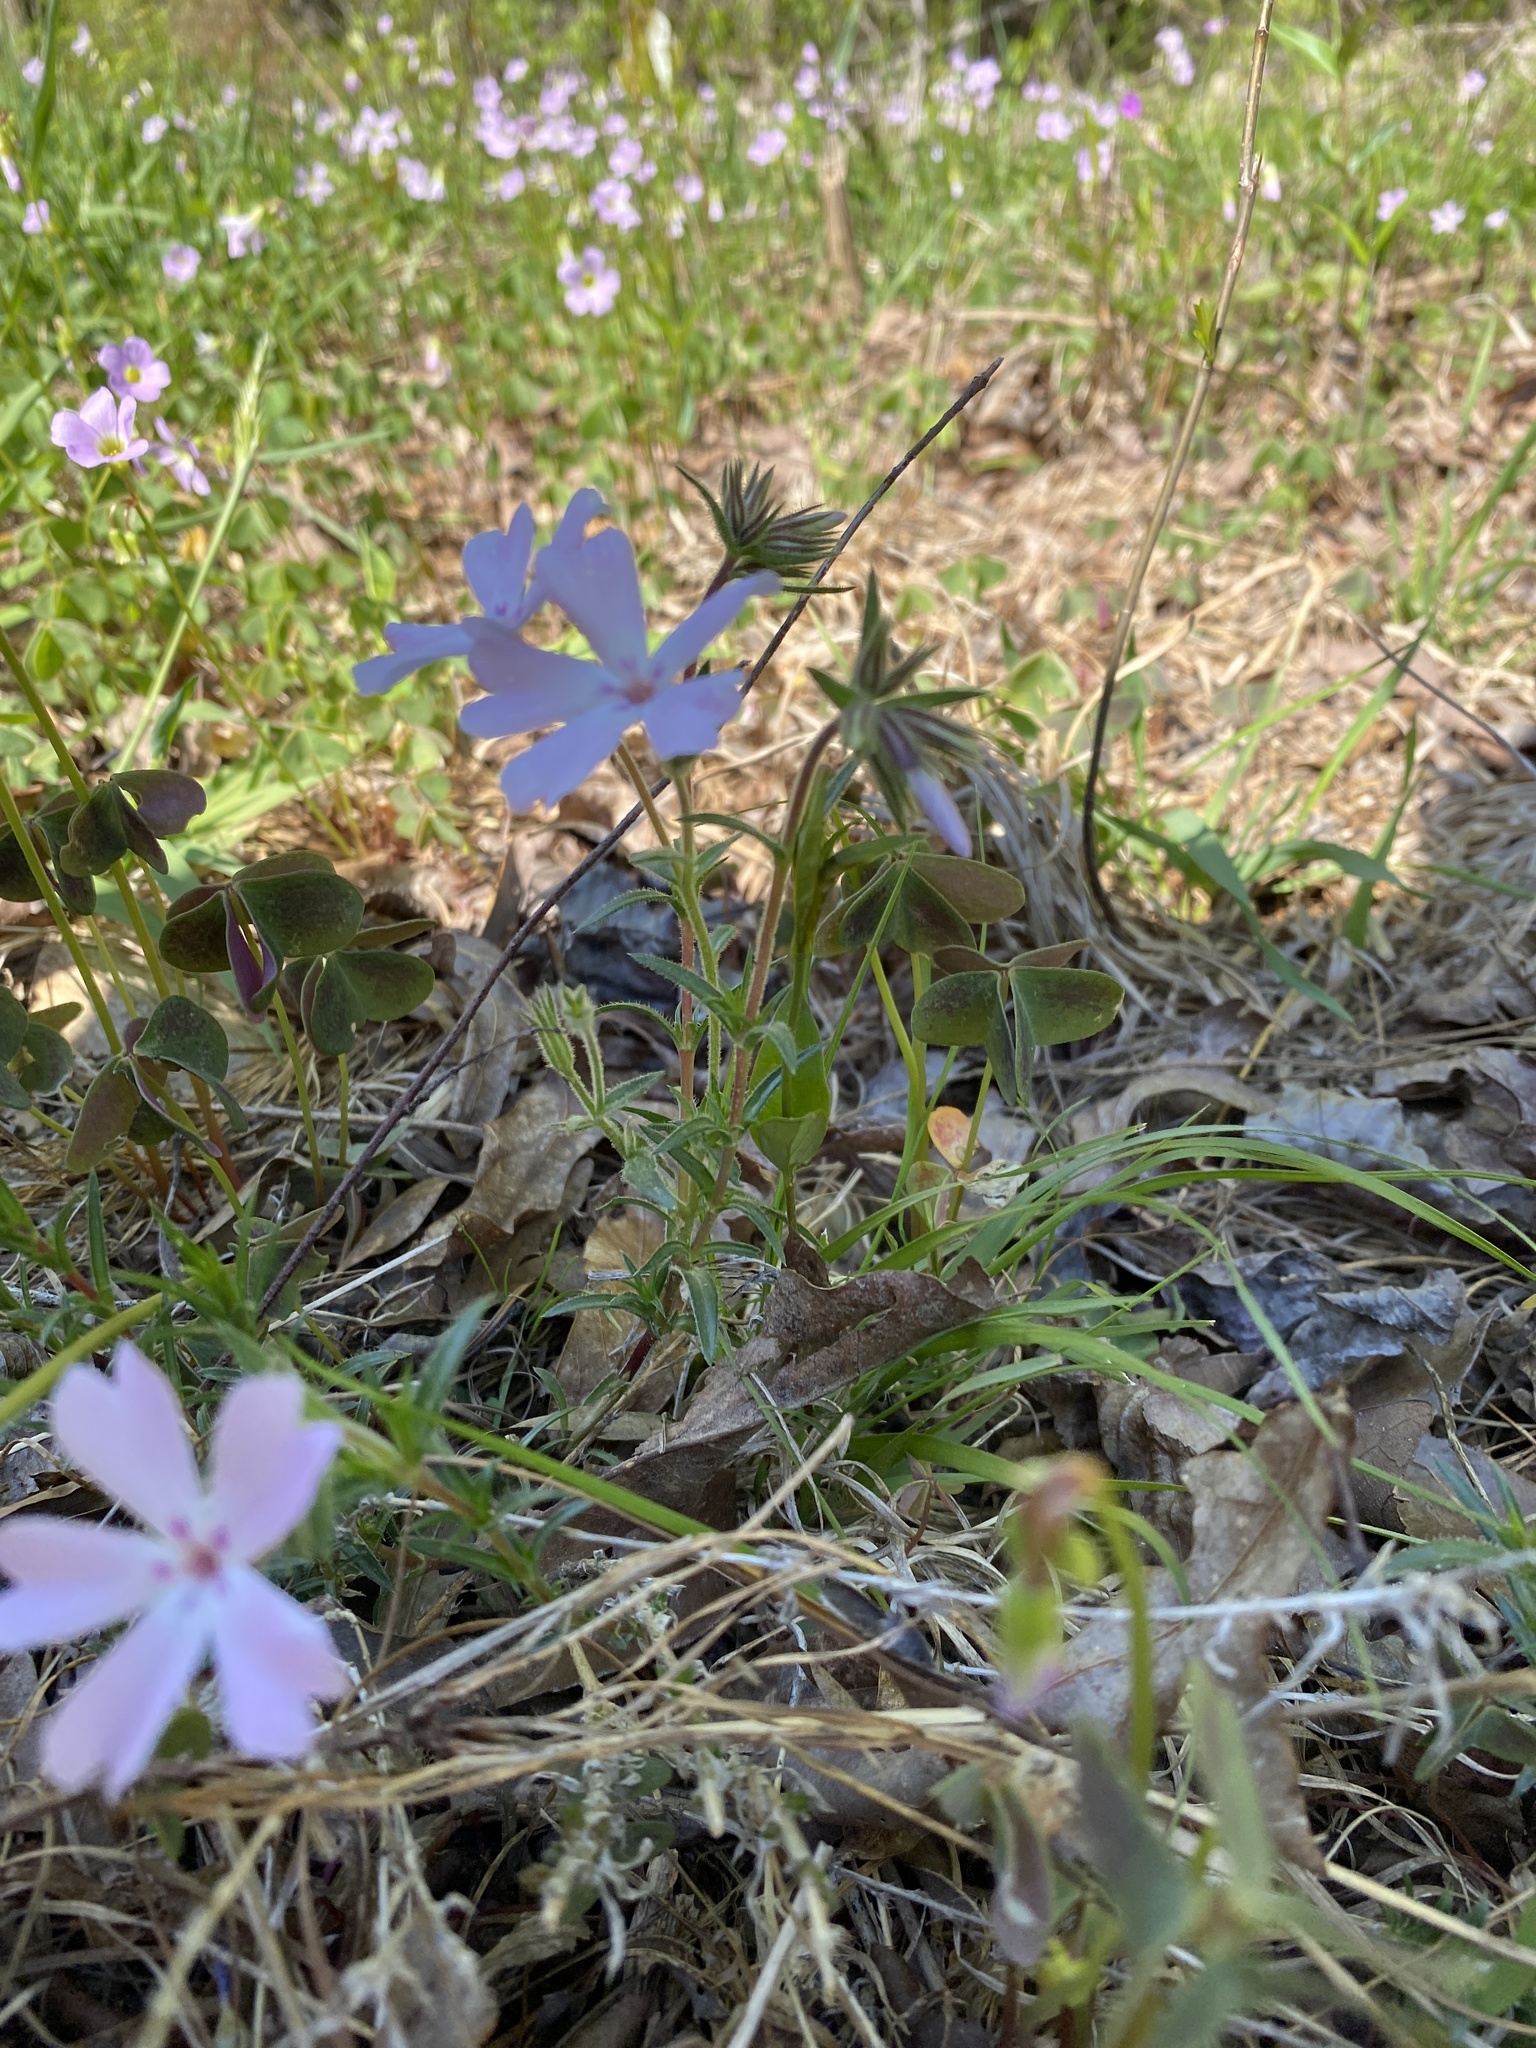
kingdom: Plantae
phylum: Tracheophyta
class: Magnoliopsida
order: Ericales
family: Polemoniaceae
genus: Phlox
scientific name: Phlox nivalis
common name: Trailing phlox
